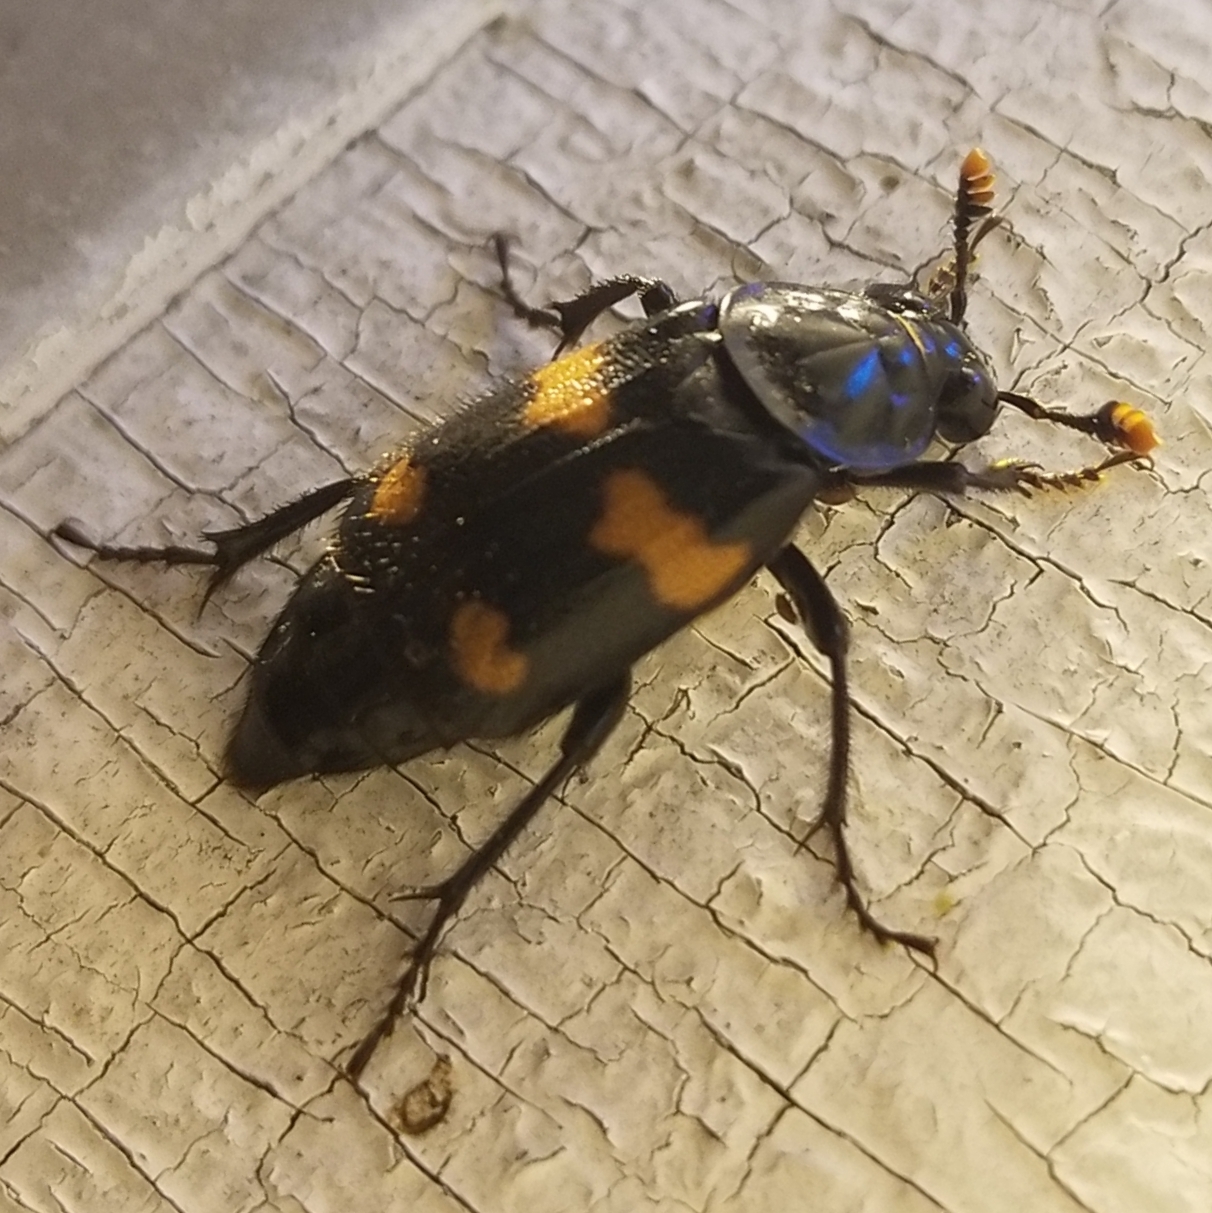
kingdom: Animalia
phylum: Arthropoda
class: Insecta
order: Coleoptera
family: Staphylinidae
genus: Nicrophorus
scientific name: Nicrophorus orbicollis
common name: Roundneck sexton beetle
